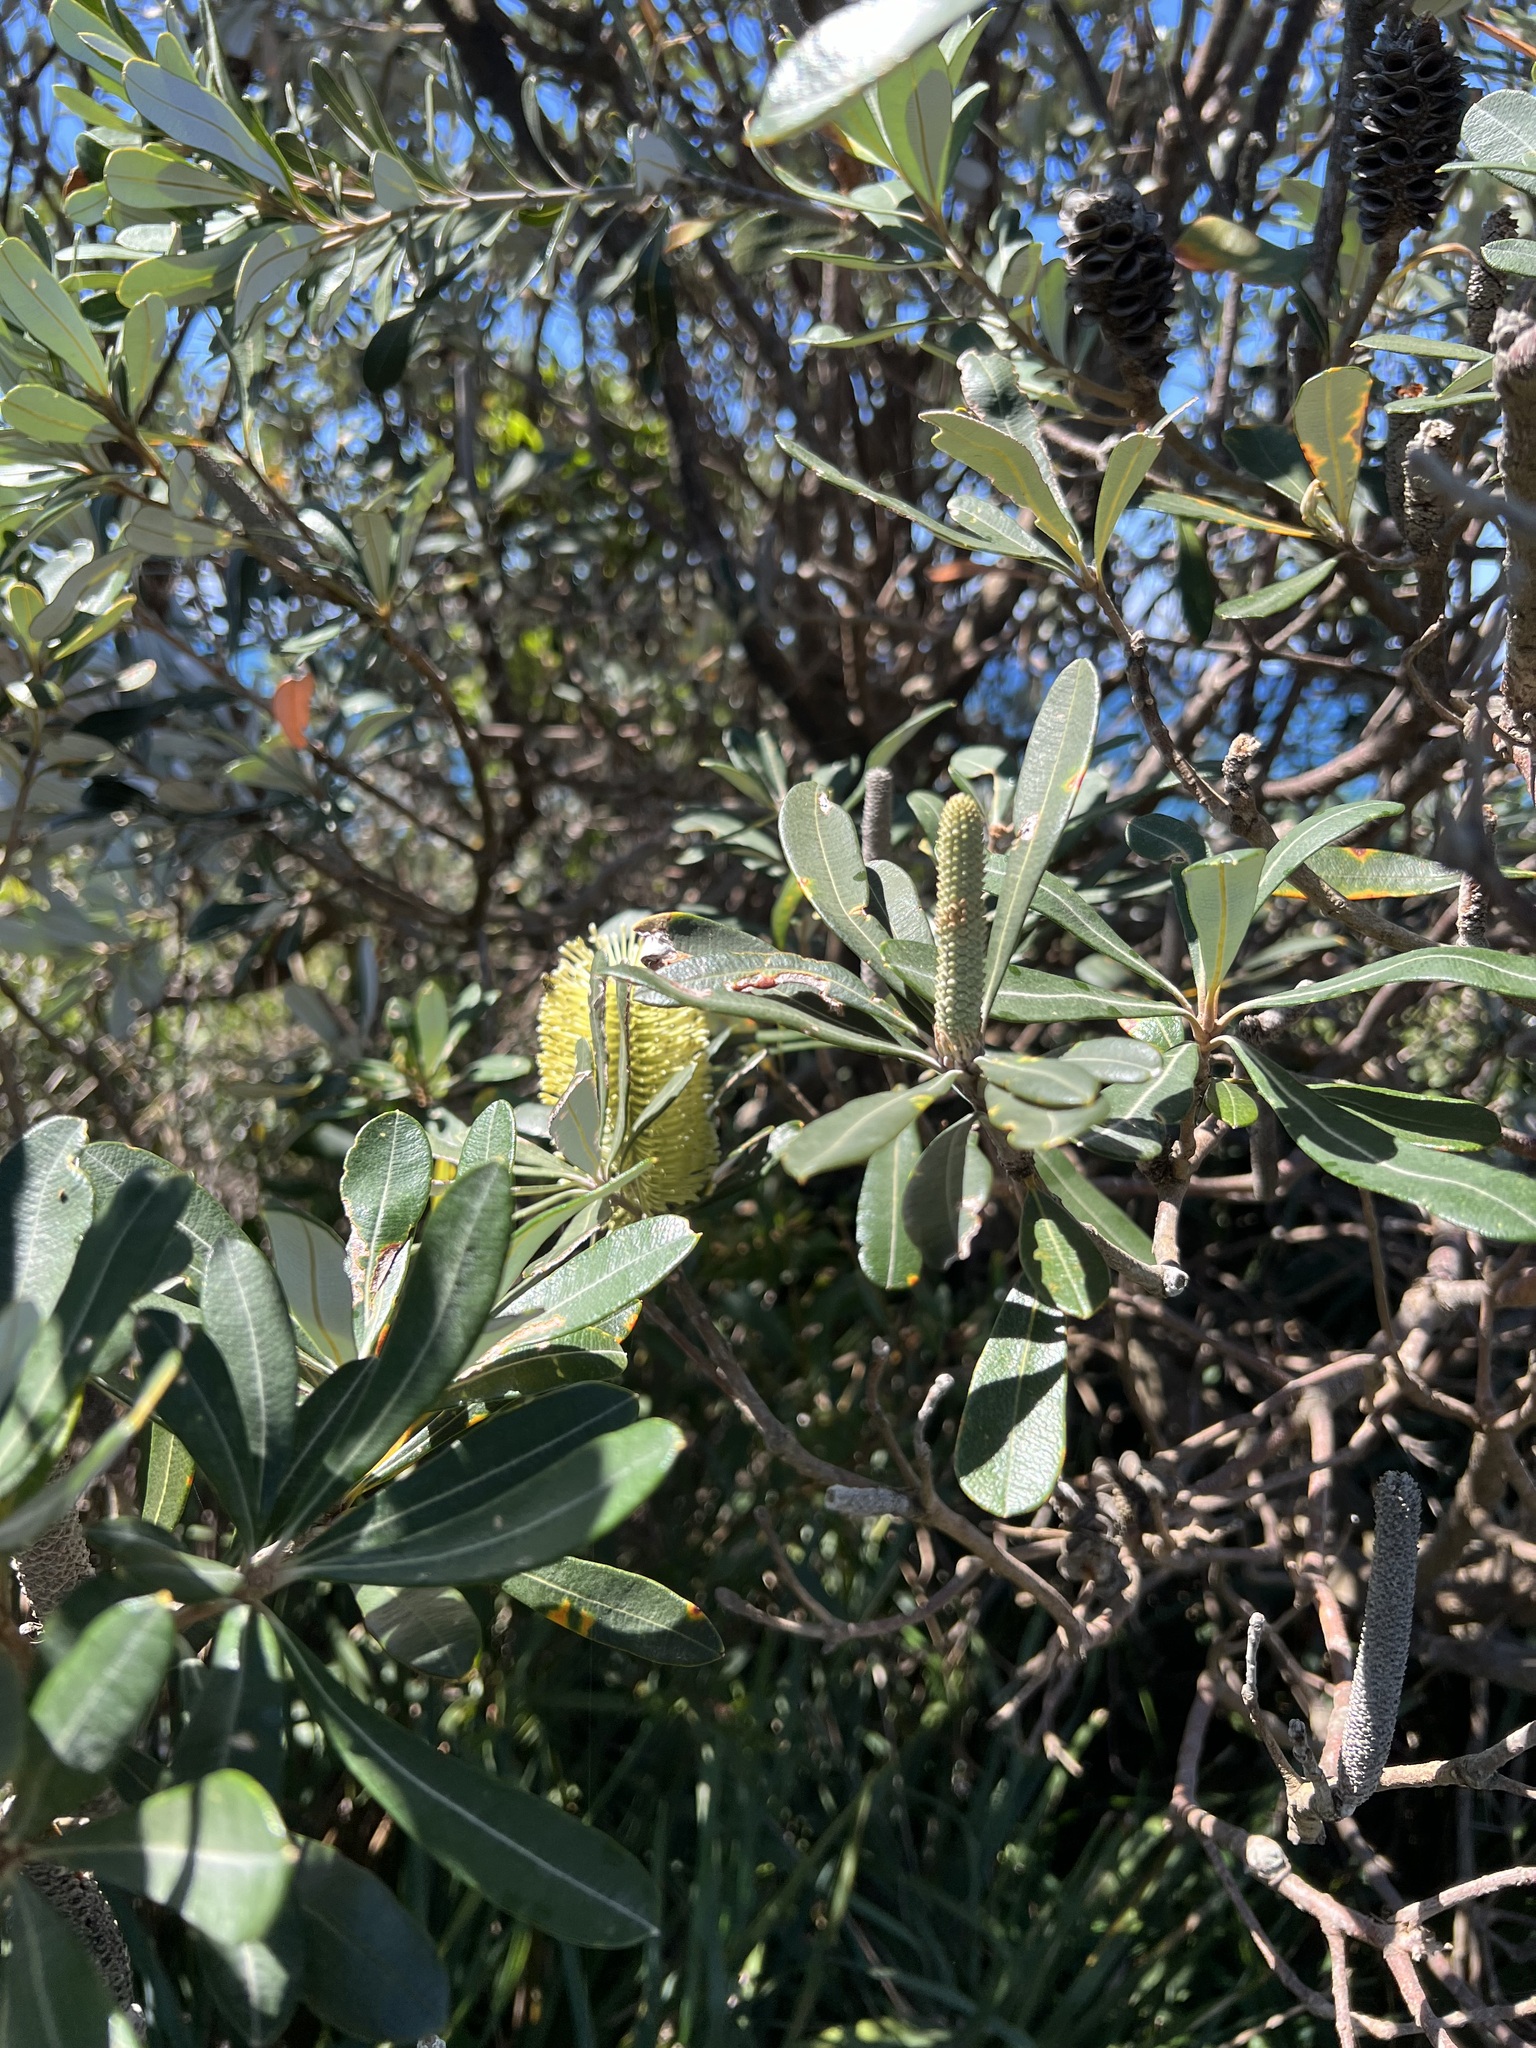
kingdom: Plantae
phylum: Tracheophyta
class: Magnoliopsida
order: Proteales
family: Proteaceae
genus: Banksia
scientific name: Banksia integrifolia
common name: White-honeysuckle
